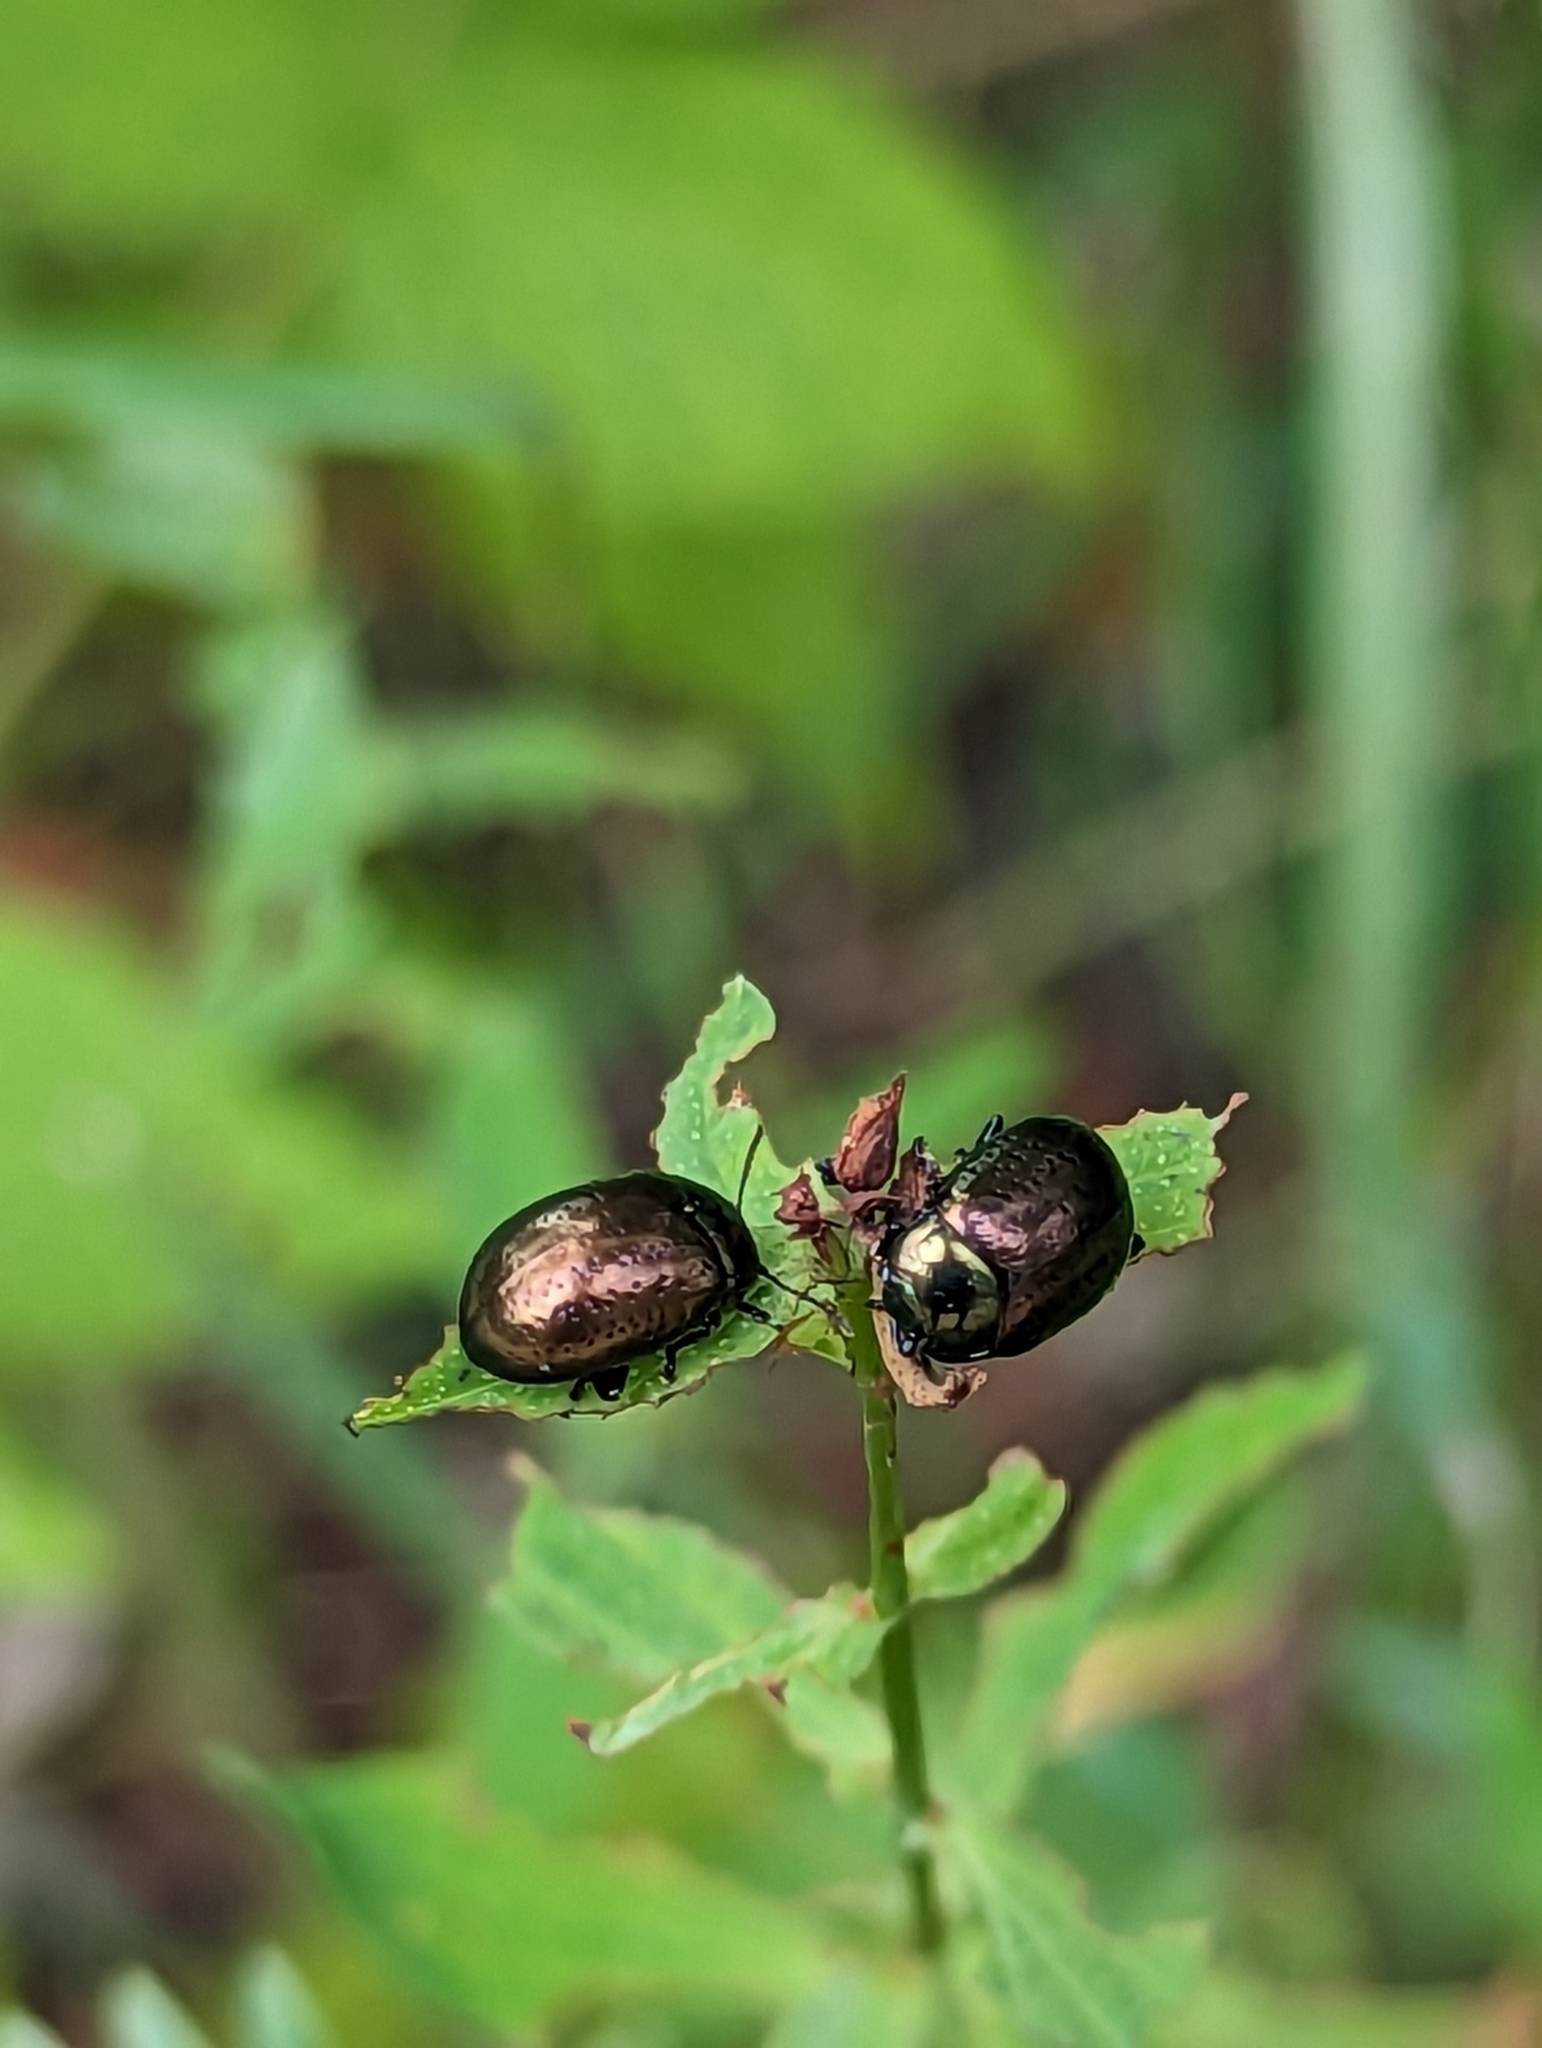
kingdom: Animalia
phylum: Arthropoda
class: Insecta
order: Coleoptera
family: Chrysomelidae
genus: Chrysolina
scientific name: Chrysolina hyperici
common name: St. johnswort beetle
